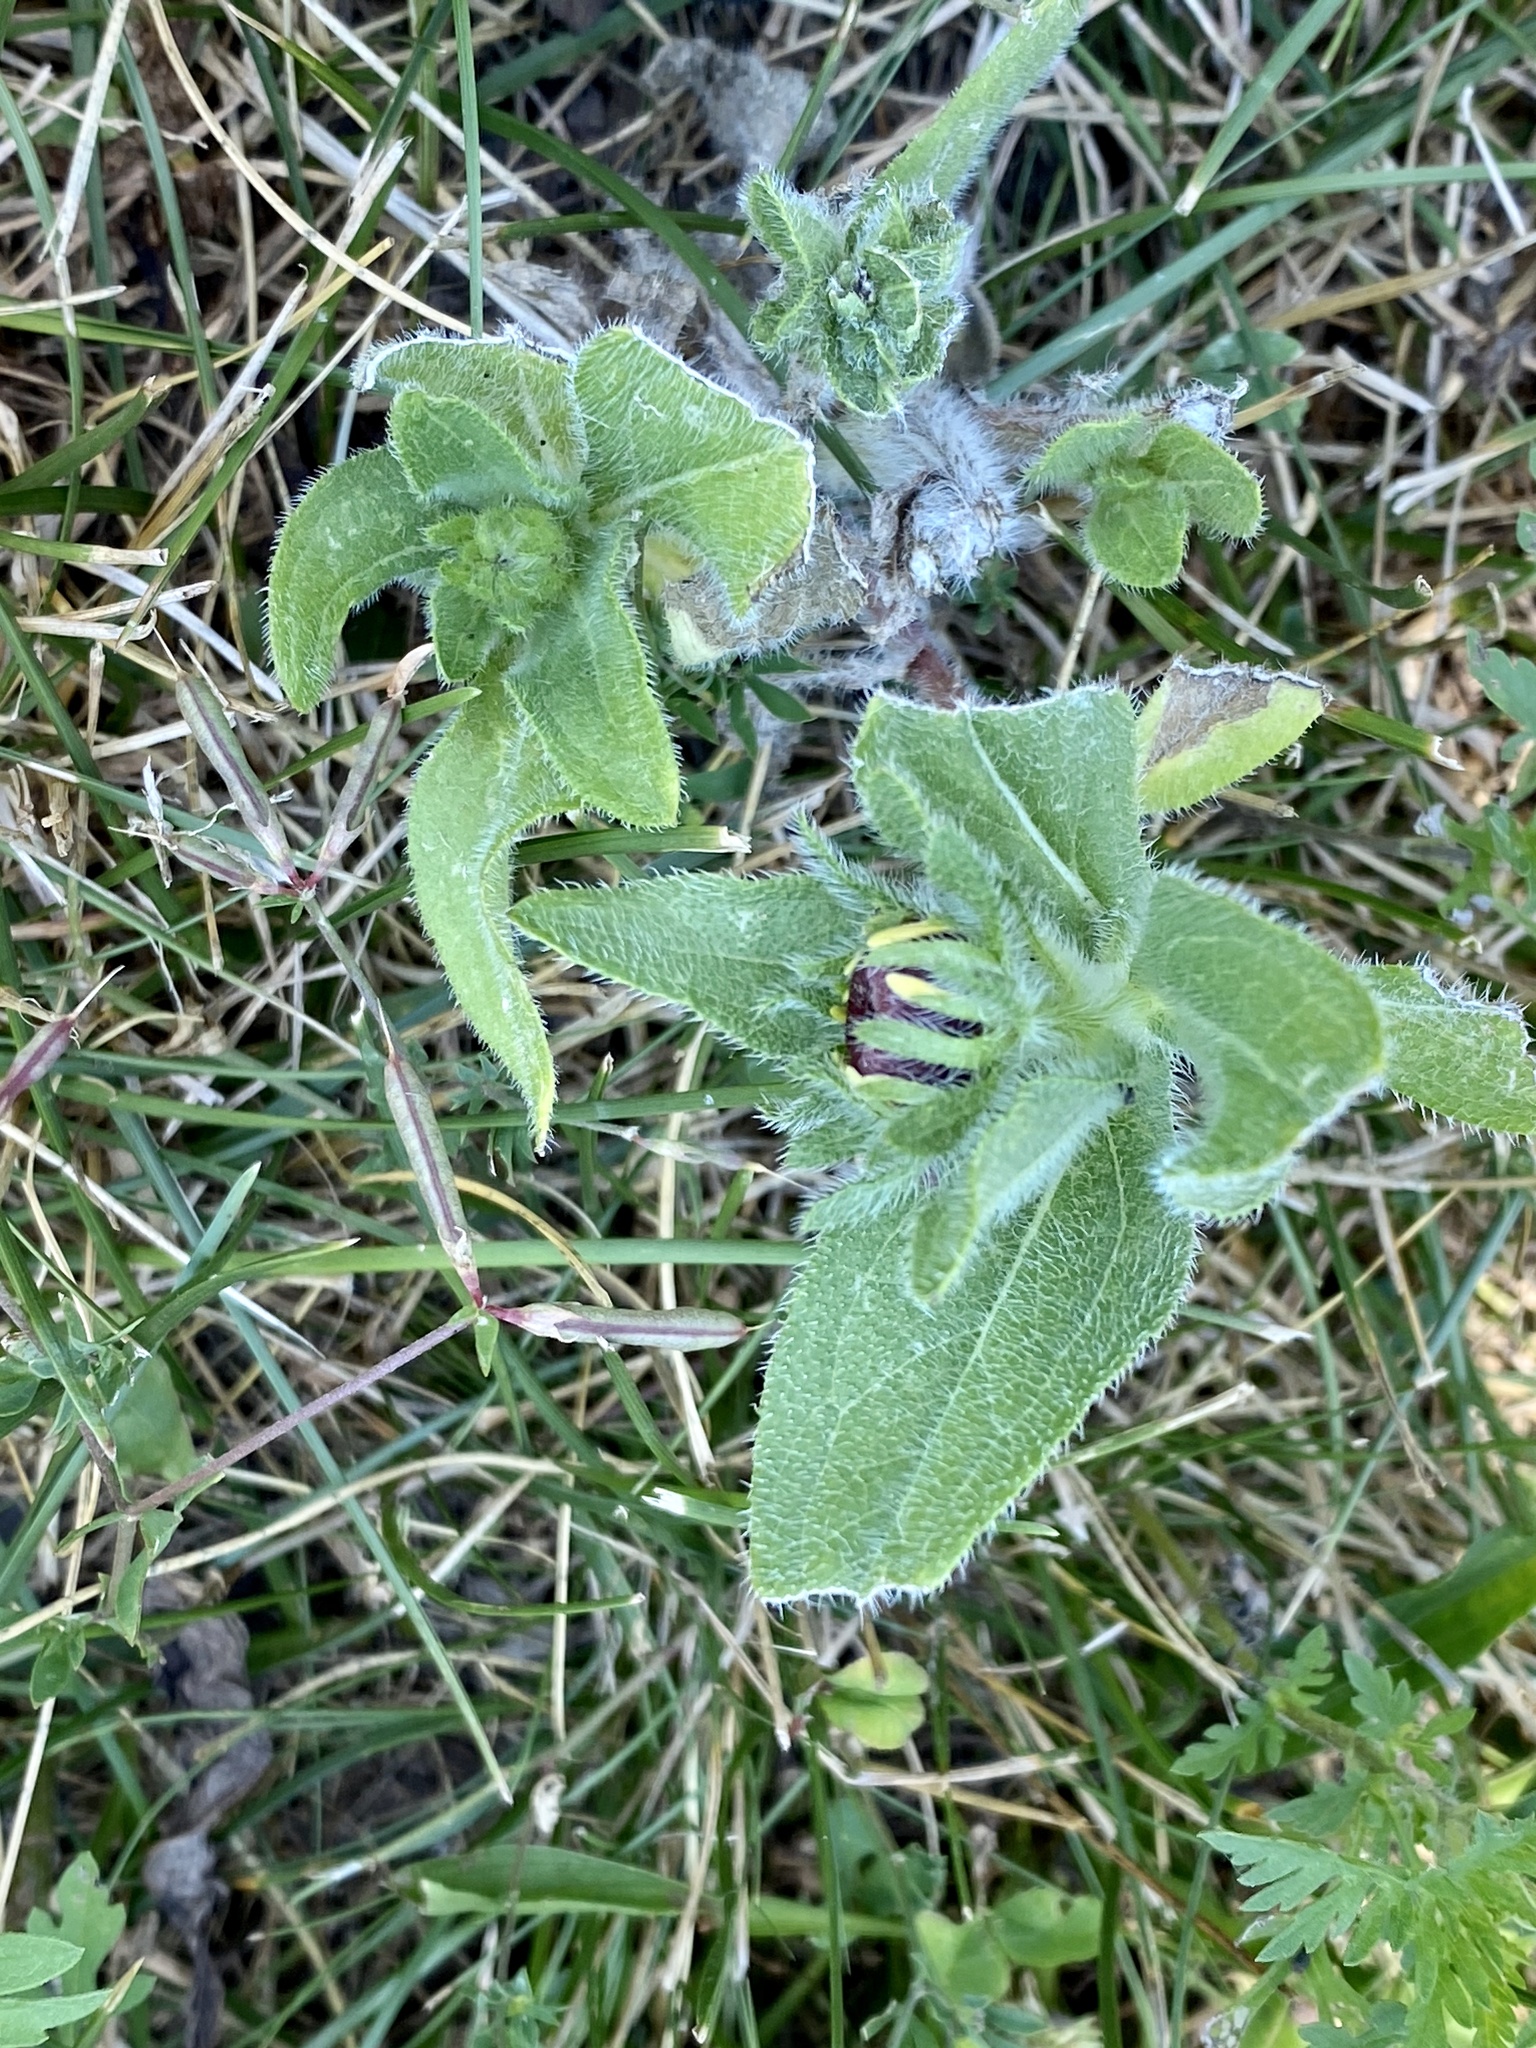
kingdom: Plantae
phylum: Tracheophyta
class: Magnoliopsida
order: Asterales
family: Asteraceae
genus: Rudbeckia
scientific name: Rudbeckia hirta
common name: Black-eyed-susan
